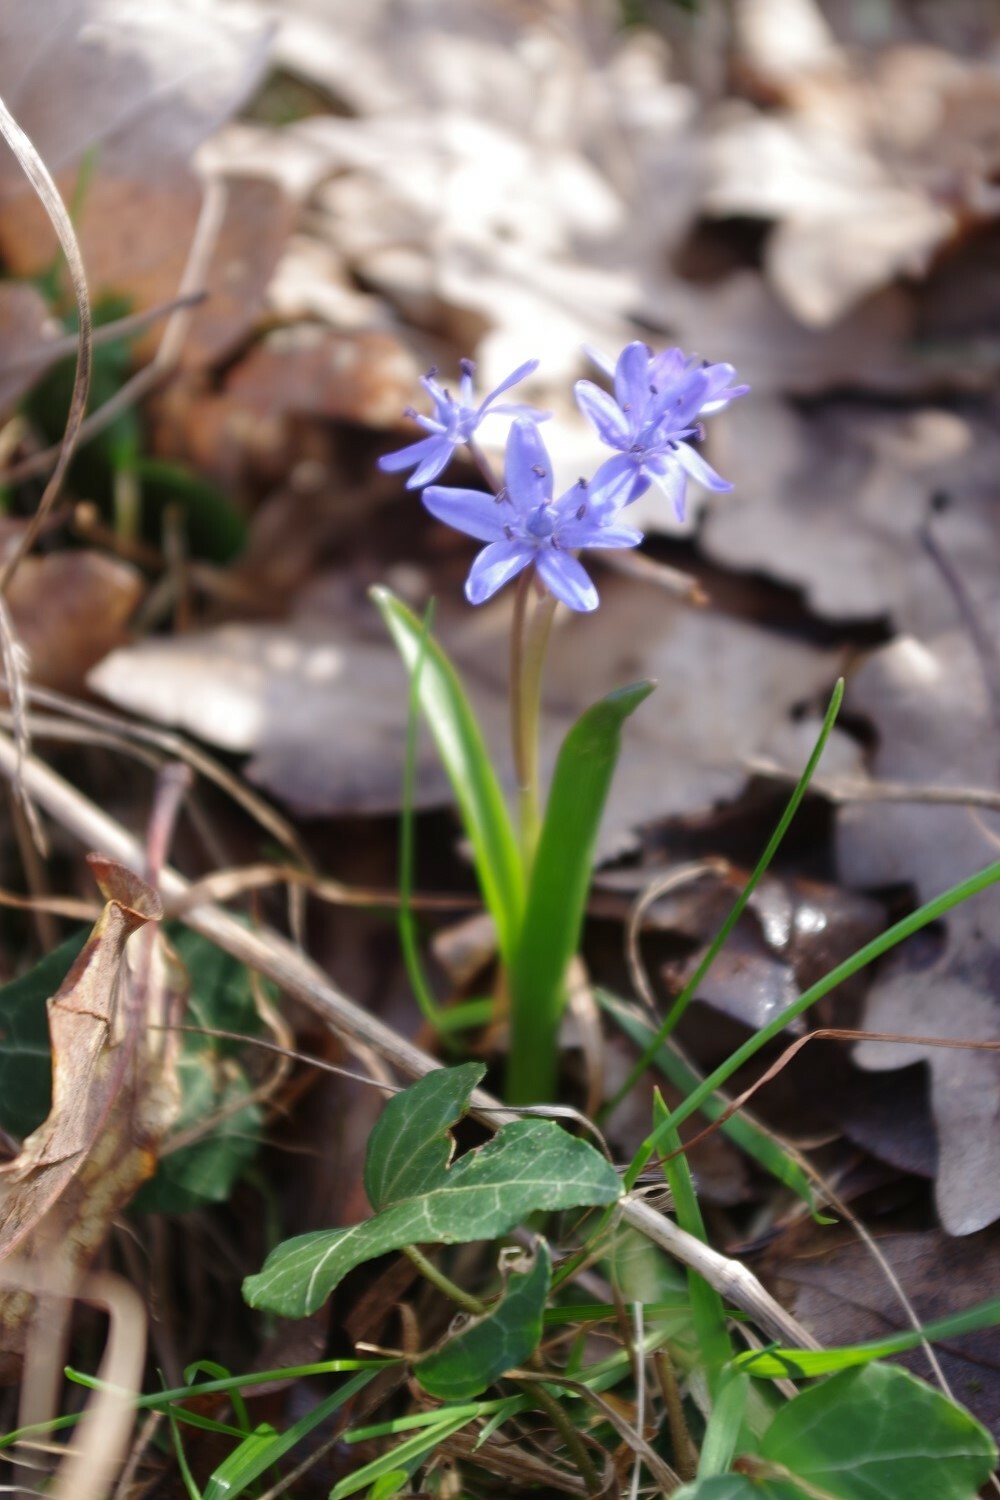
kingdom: Plantae
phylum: Tracheophyta
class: Liliopsida
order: Asparagales
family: Asparagaceae
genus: Scilla
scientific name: Scilla bifolia
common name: Alpine squill
